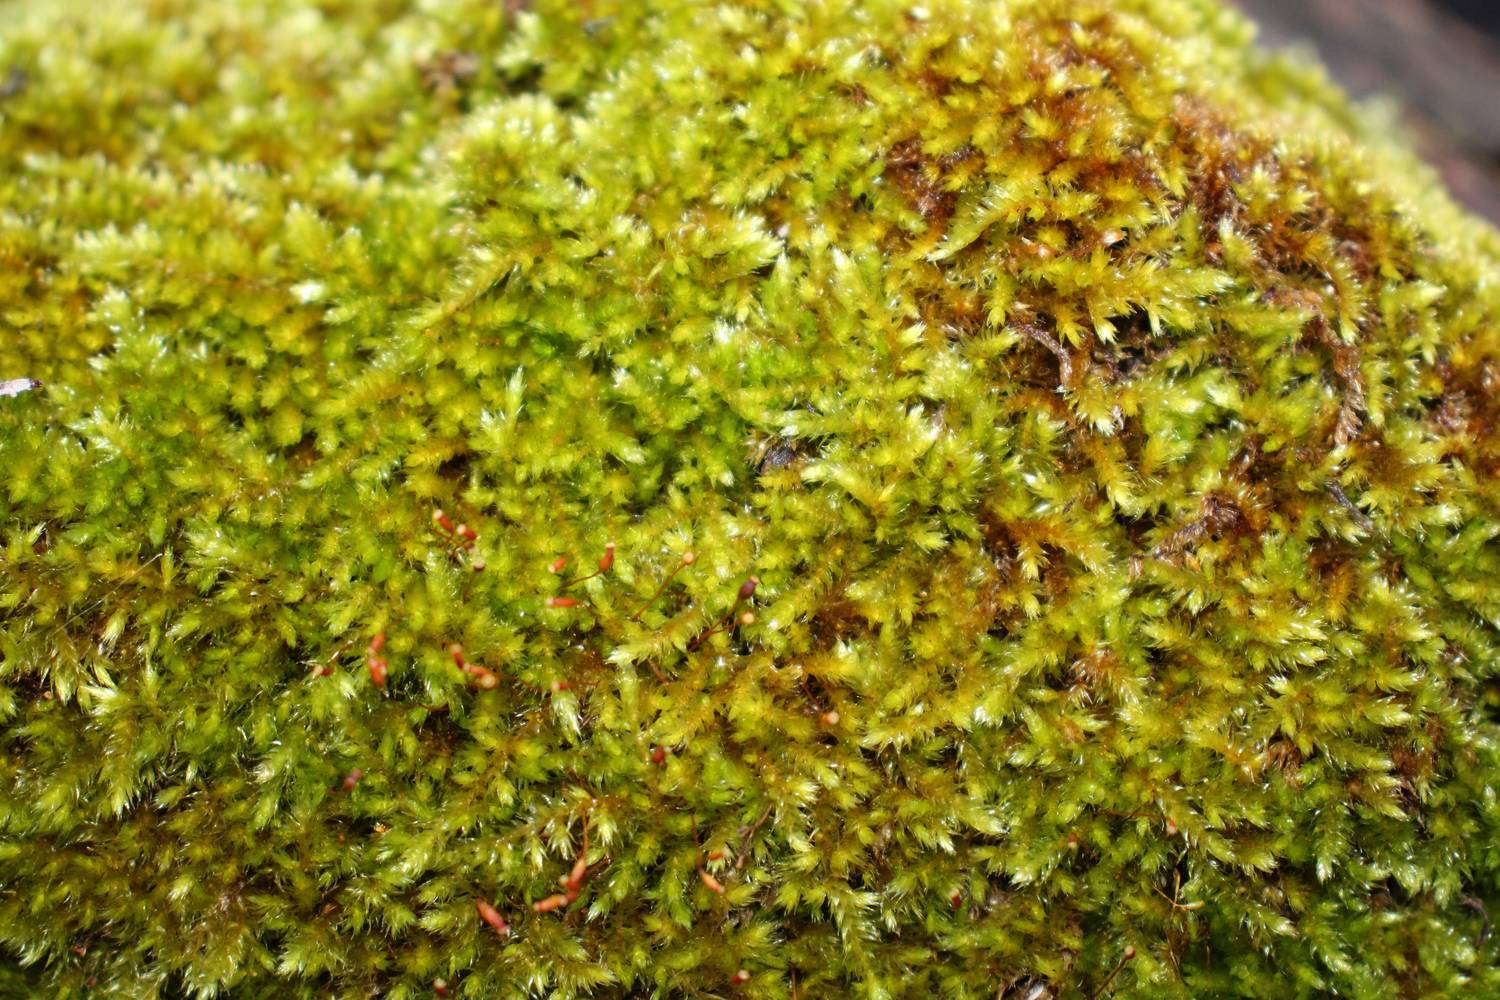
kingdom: Plantae
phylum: Bryophyta
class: Bryopsida
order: Hypnales
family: Sematophyllaceae
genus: Sematophyllum
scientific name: Sematophyllum homomallum
